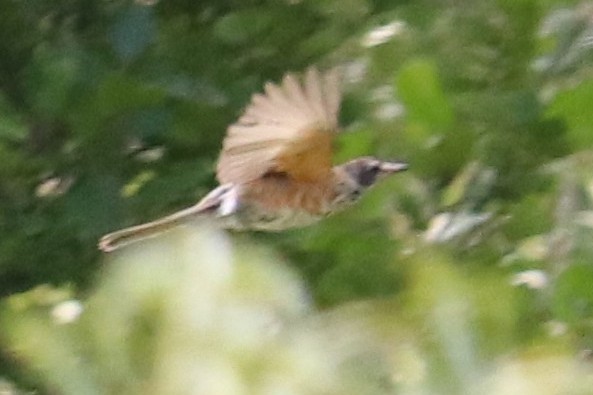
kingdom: Animalia
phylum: Chordata
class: Aves
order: Passeriformes
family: Turdidae
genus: Turdus
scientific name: Turdus migratorius
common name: American robin
